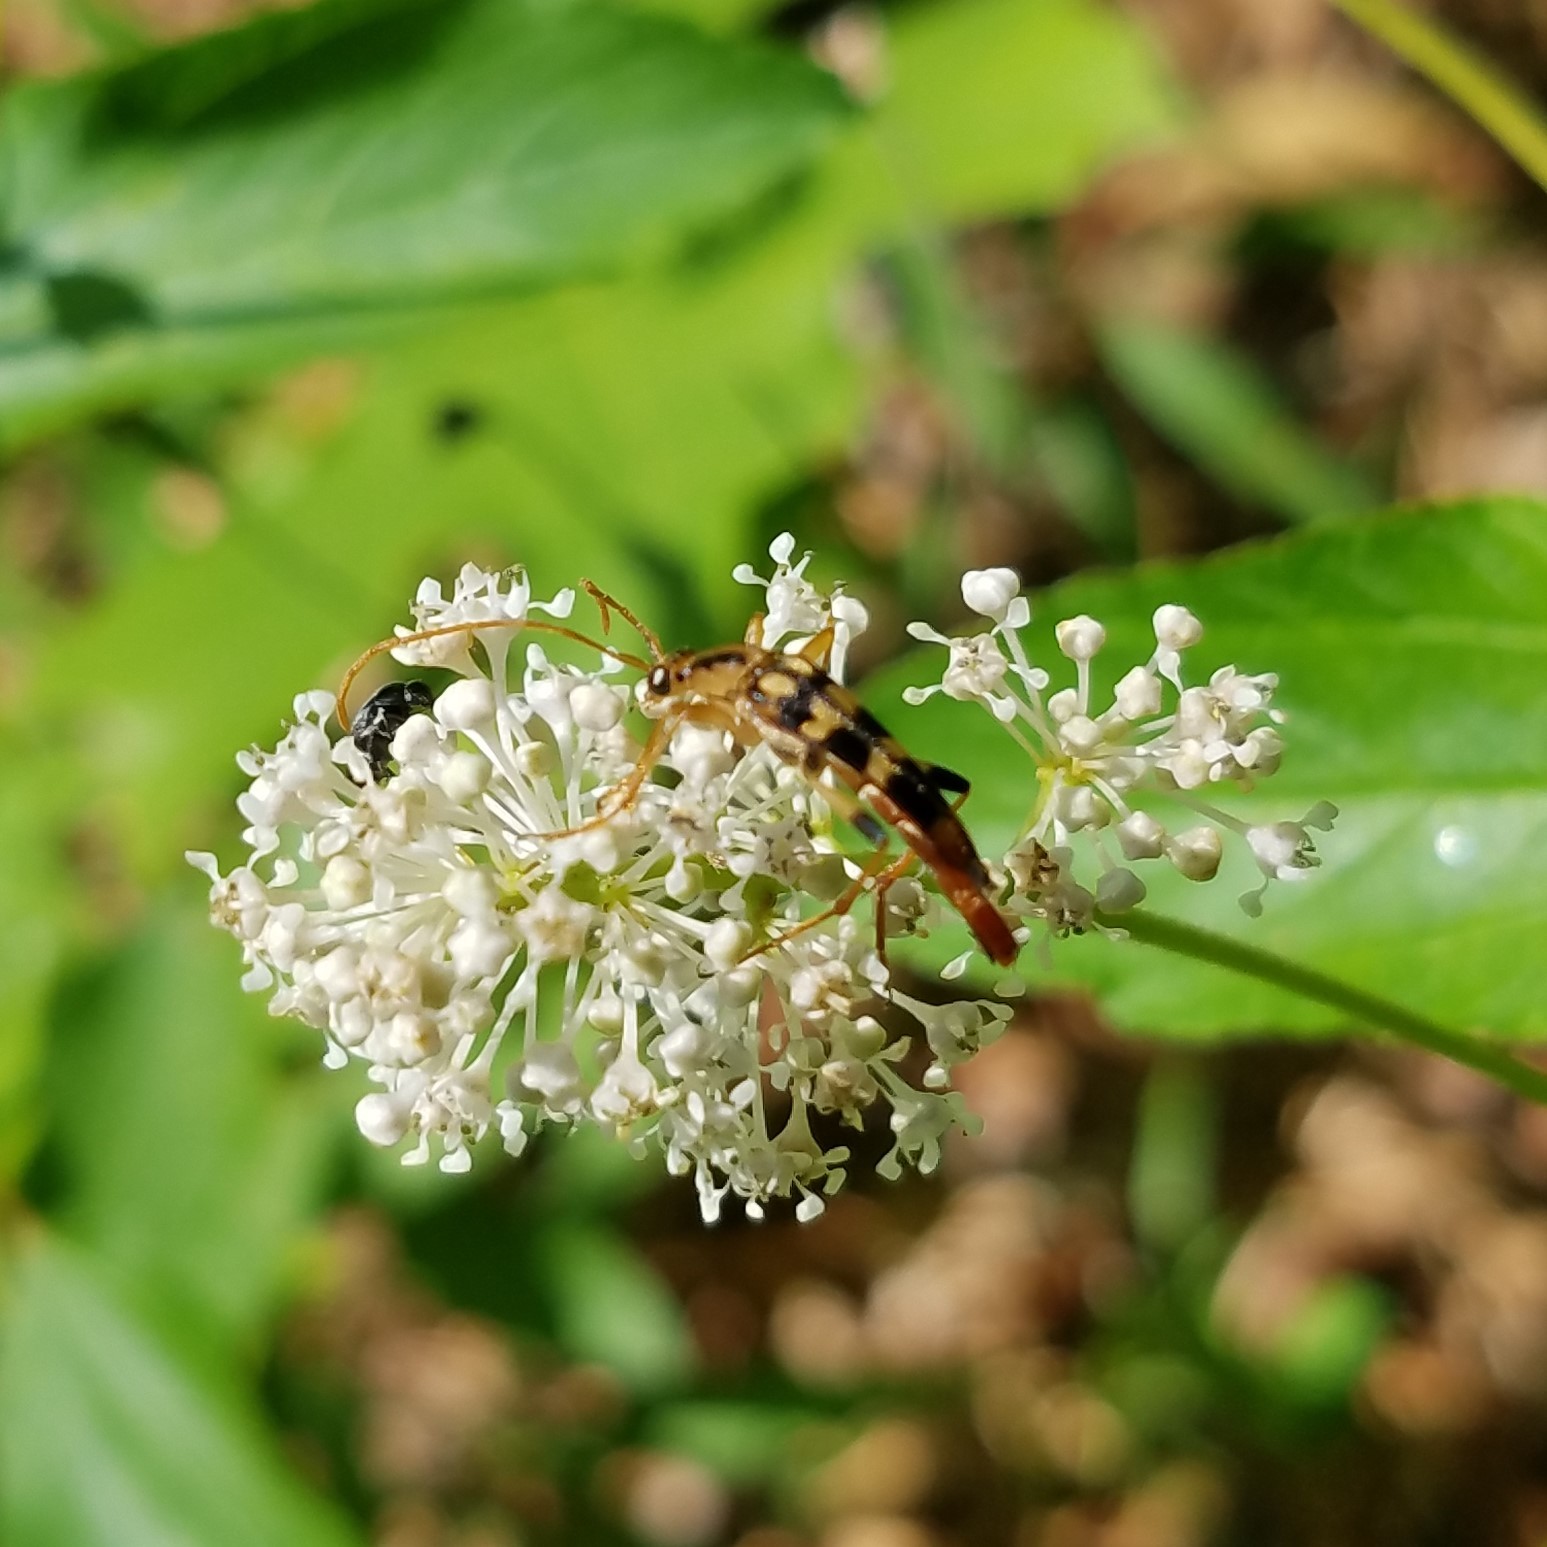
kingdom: Animalia
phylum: Arthropoda
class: Insecta
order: Coleoptera
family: Cerambycidae
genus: Strangalia
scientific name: Strangalia luteicornis
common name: Yellow-horned flower longhorn beetle
